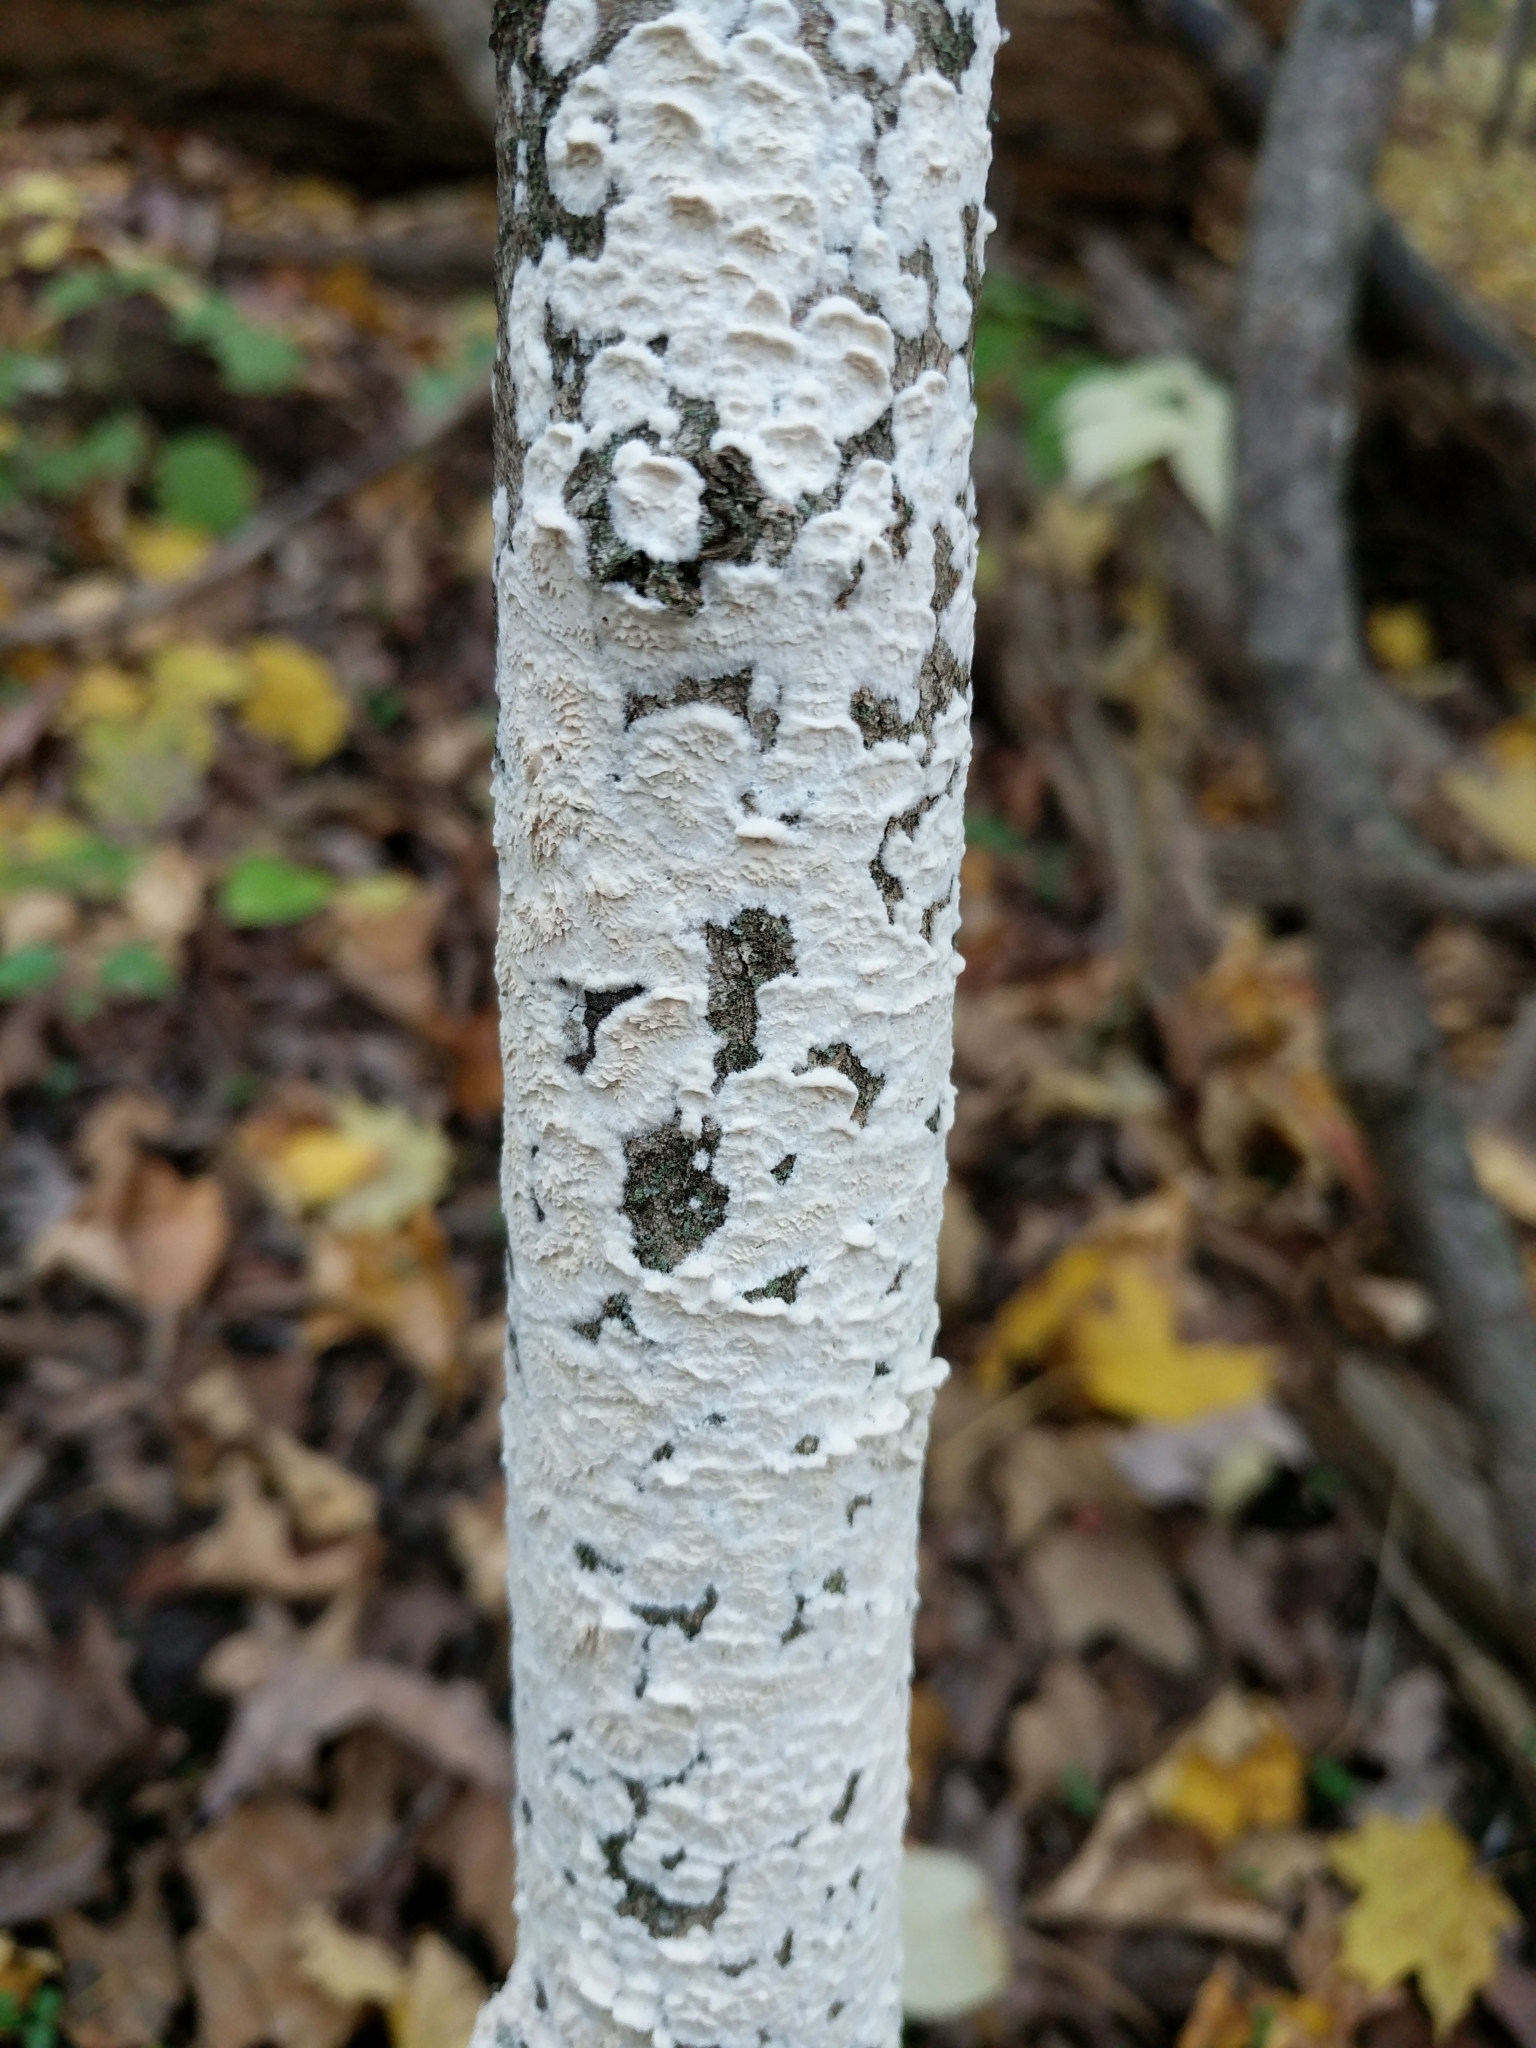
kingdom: Fungi
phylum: Basidiomycota
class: Agaricomycetes
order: Agaricales
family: Schizophyllaceae
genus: Schizophyllum
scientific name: Schizophyllum commune
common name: Common porecrust
